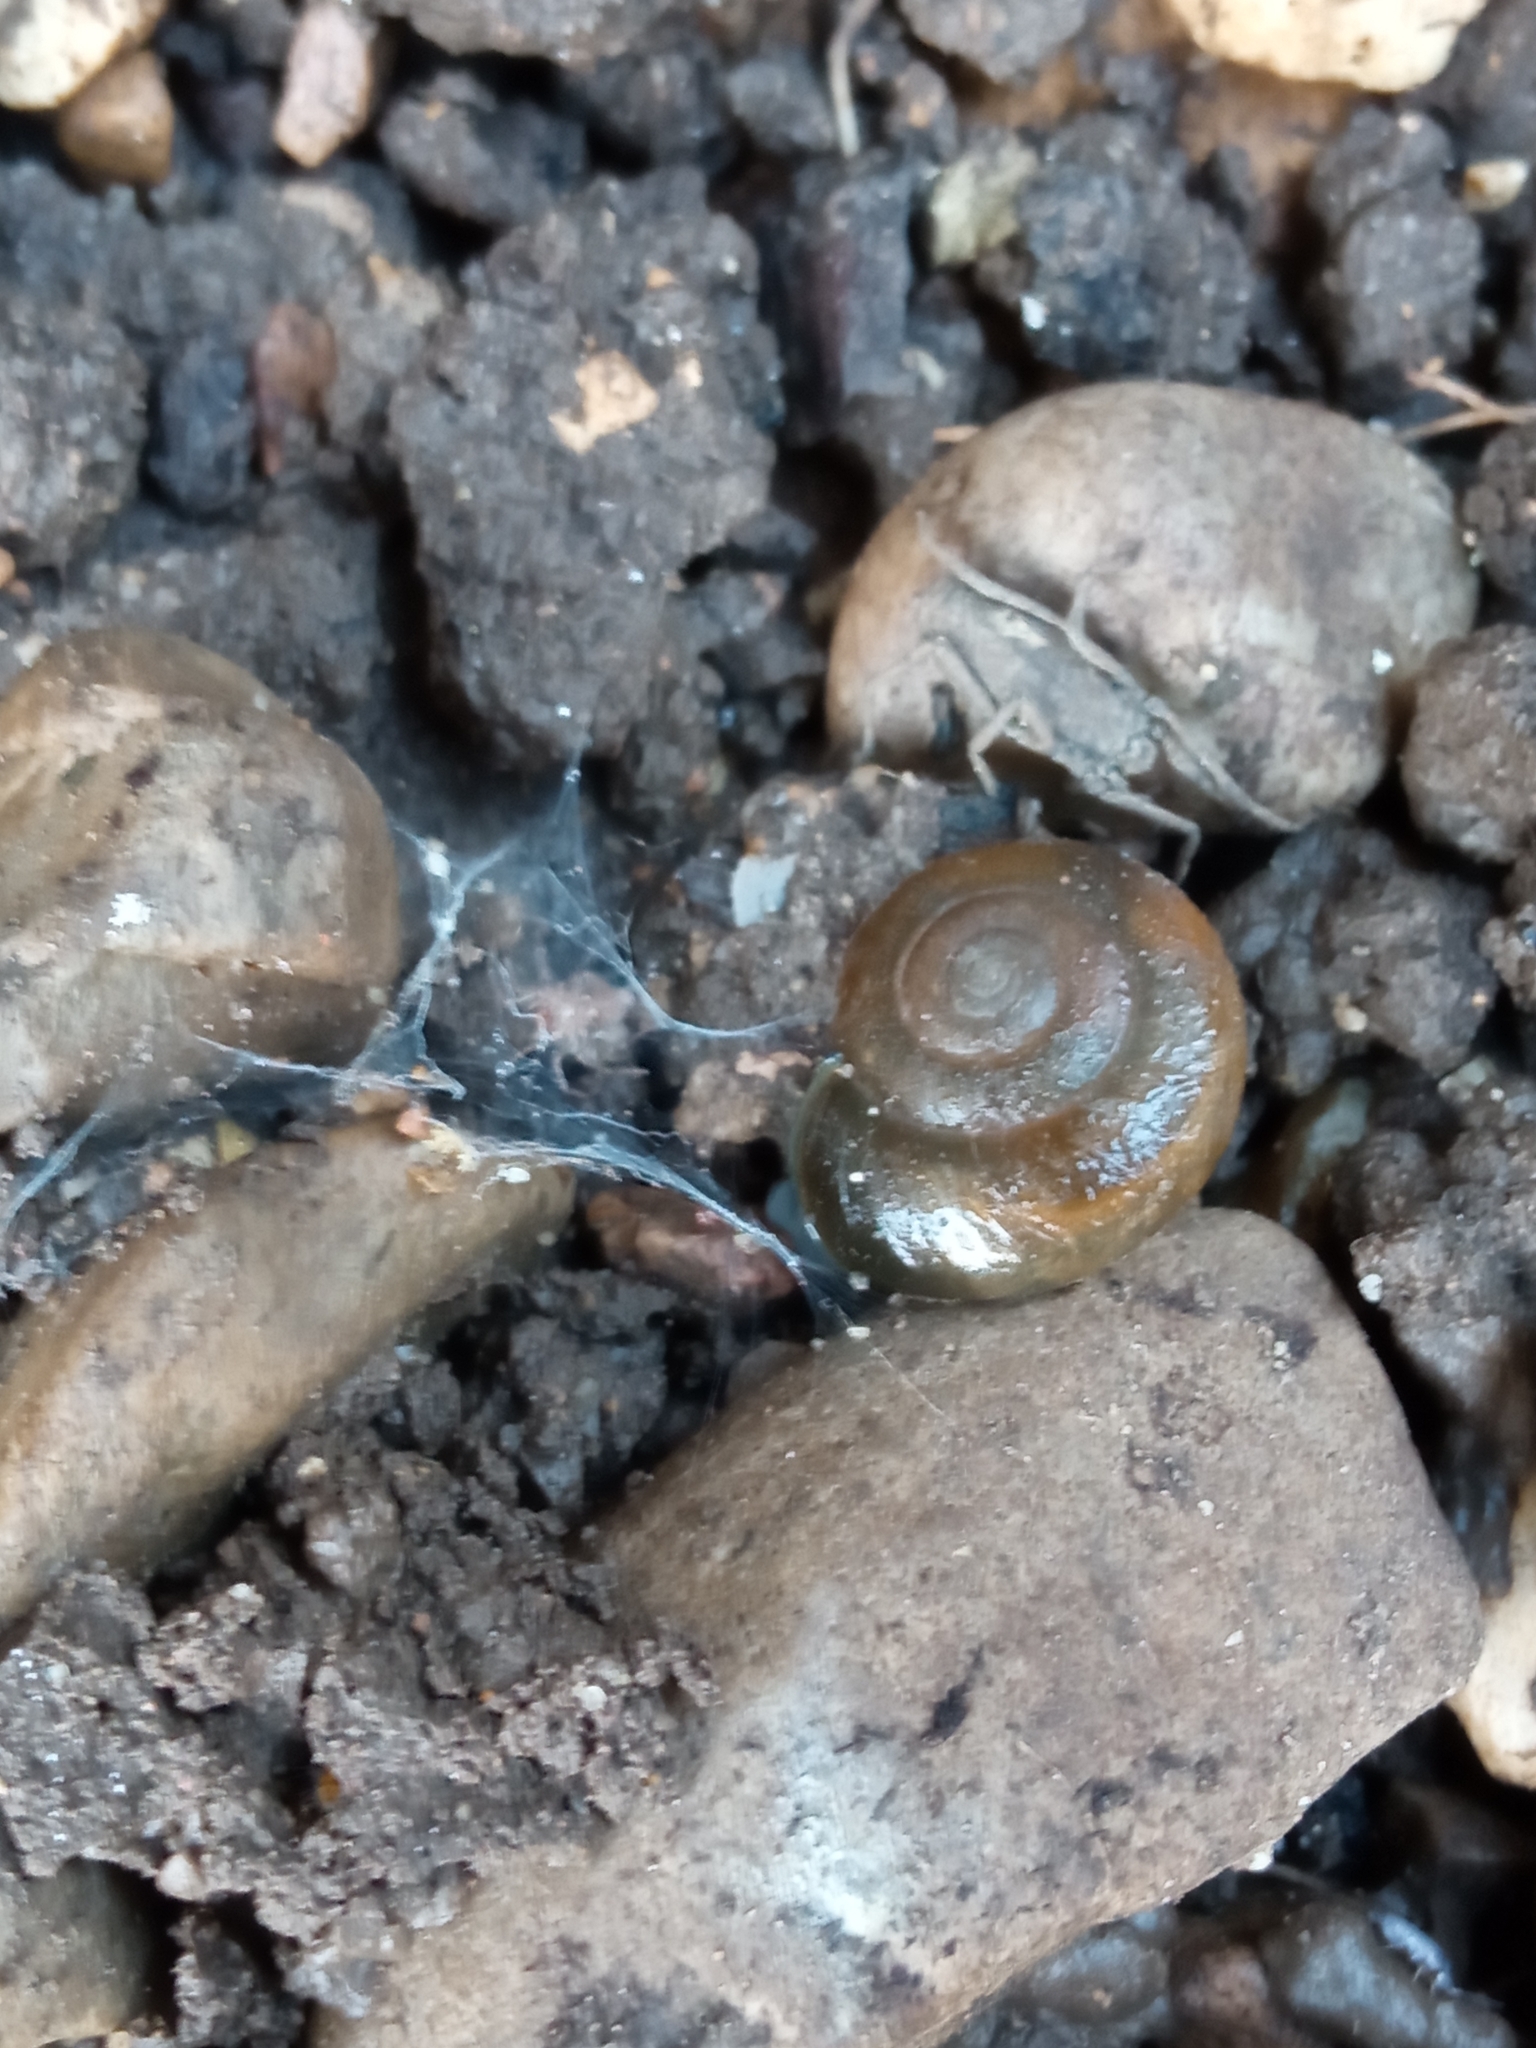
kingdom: Animalia
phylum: Mollusca
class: Gastropoda
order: Stylommatophora
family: Oxychilidae
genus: Oxychilus
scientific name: Oxychilus draparnaudi
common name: Draparnaud's glass snail
